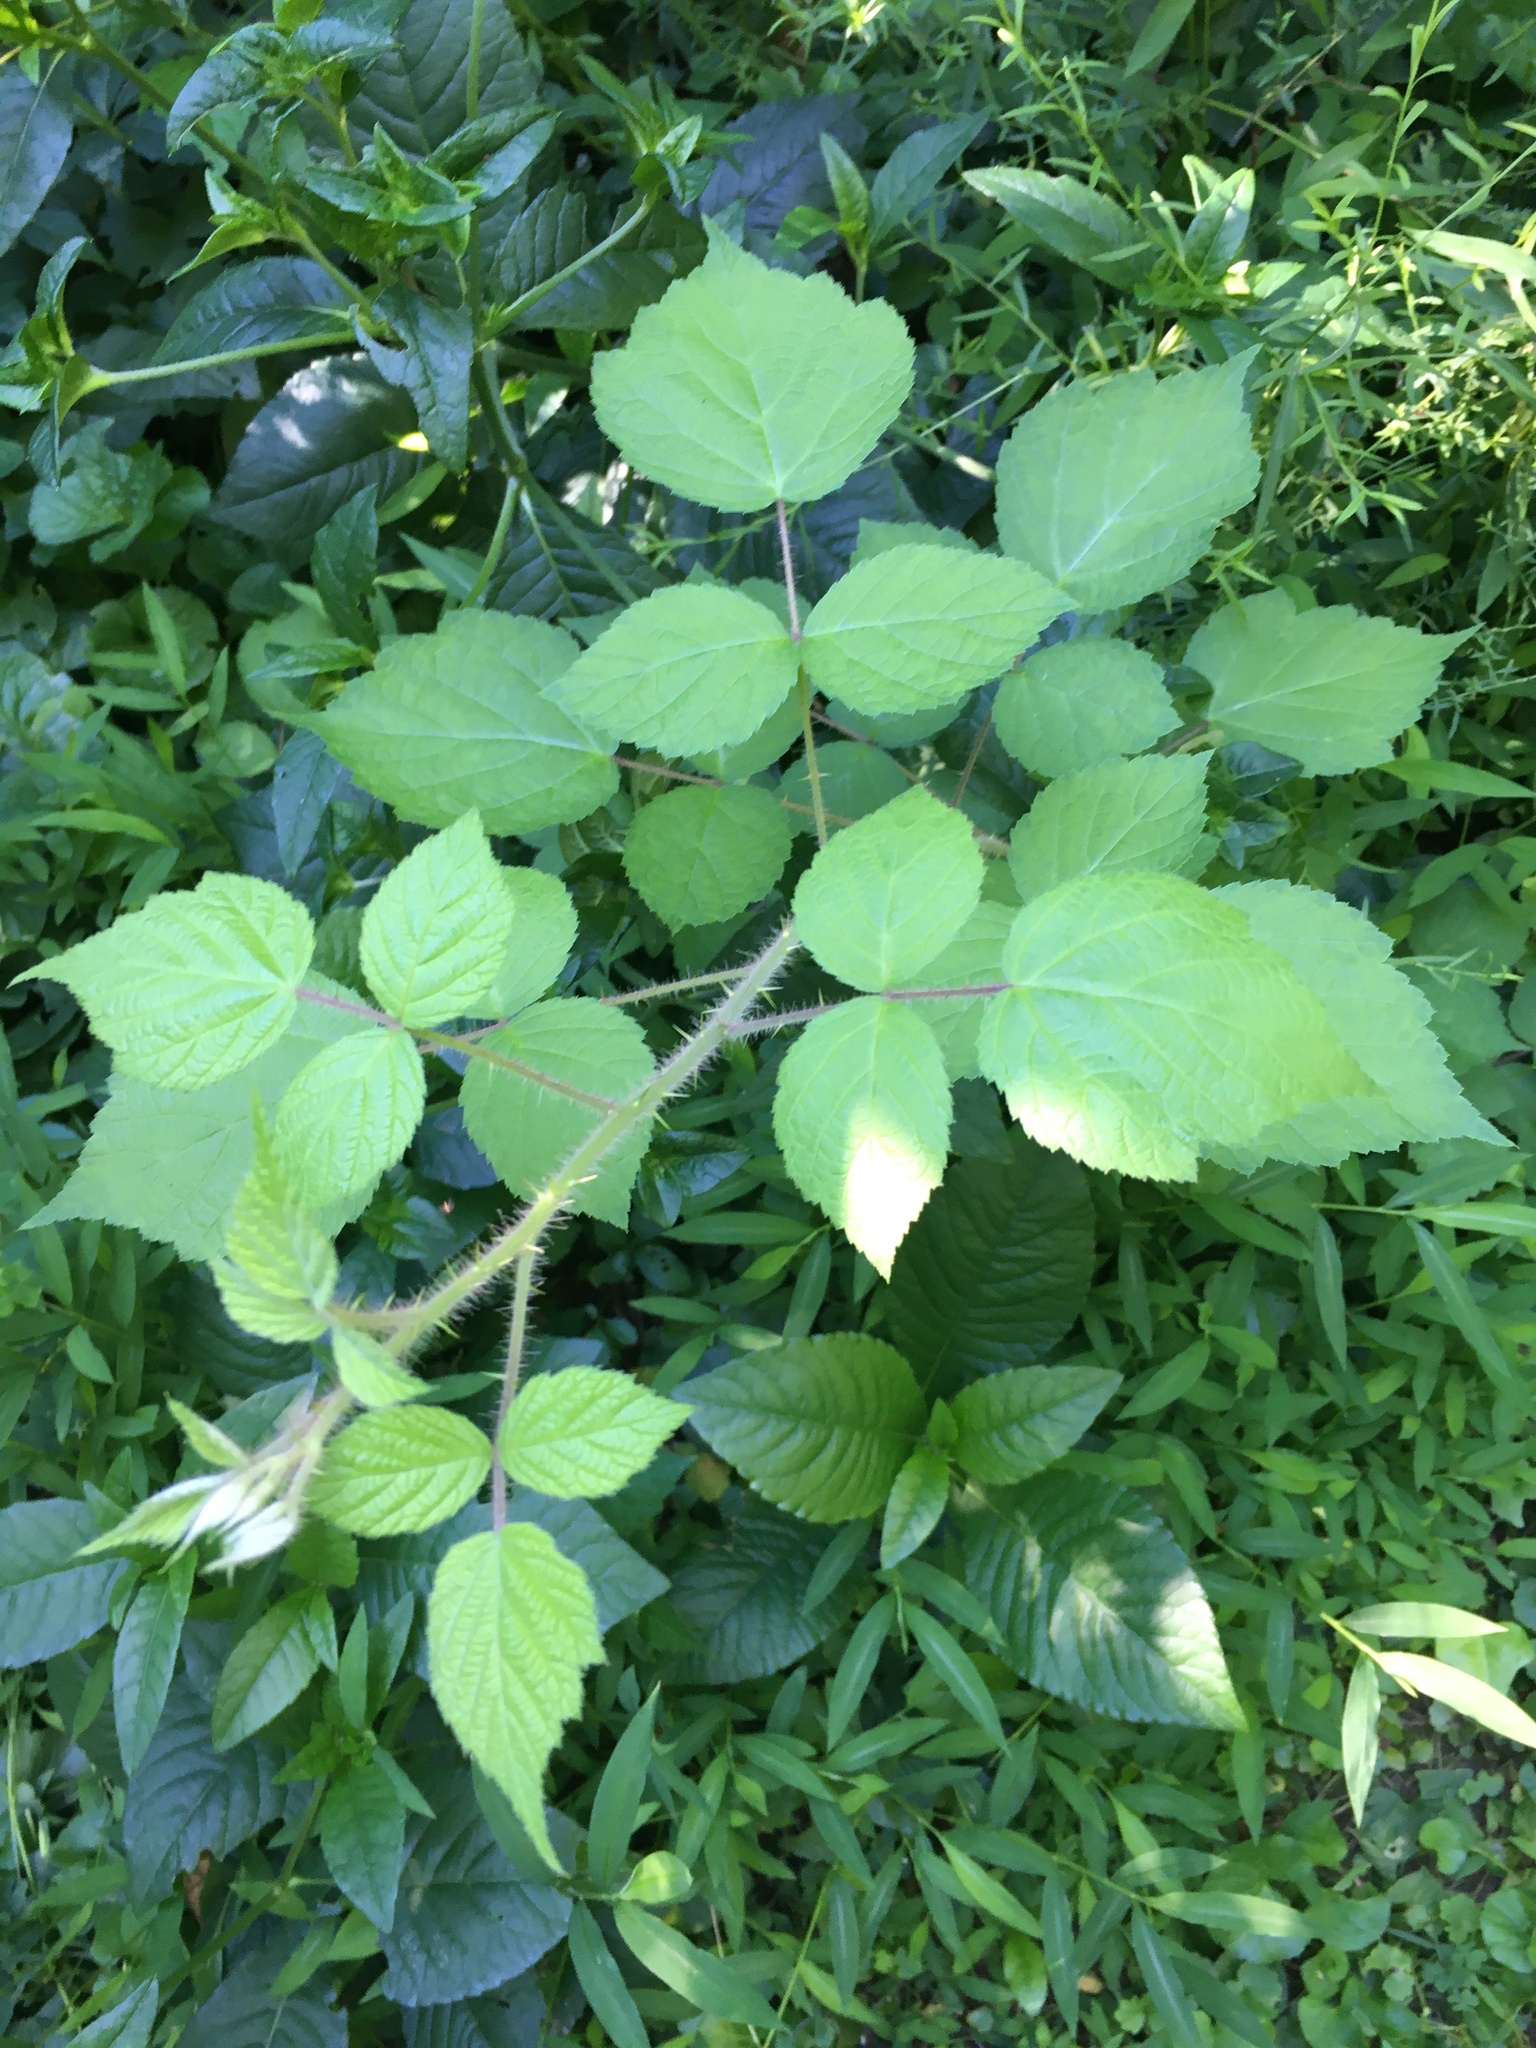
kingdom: Plantae
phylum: Tracheophyta
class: Magnoliopsida
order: Rosales
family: Rosaceae
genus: Rubus
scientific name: Rubus phoenicolasius
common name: Japanese wineberry
